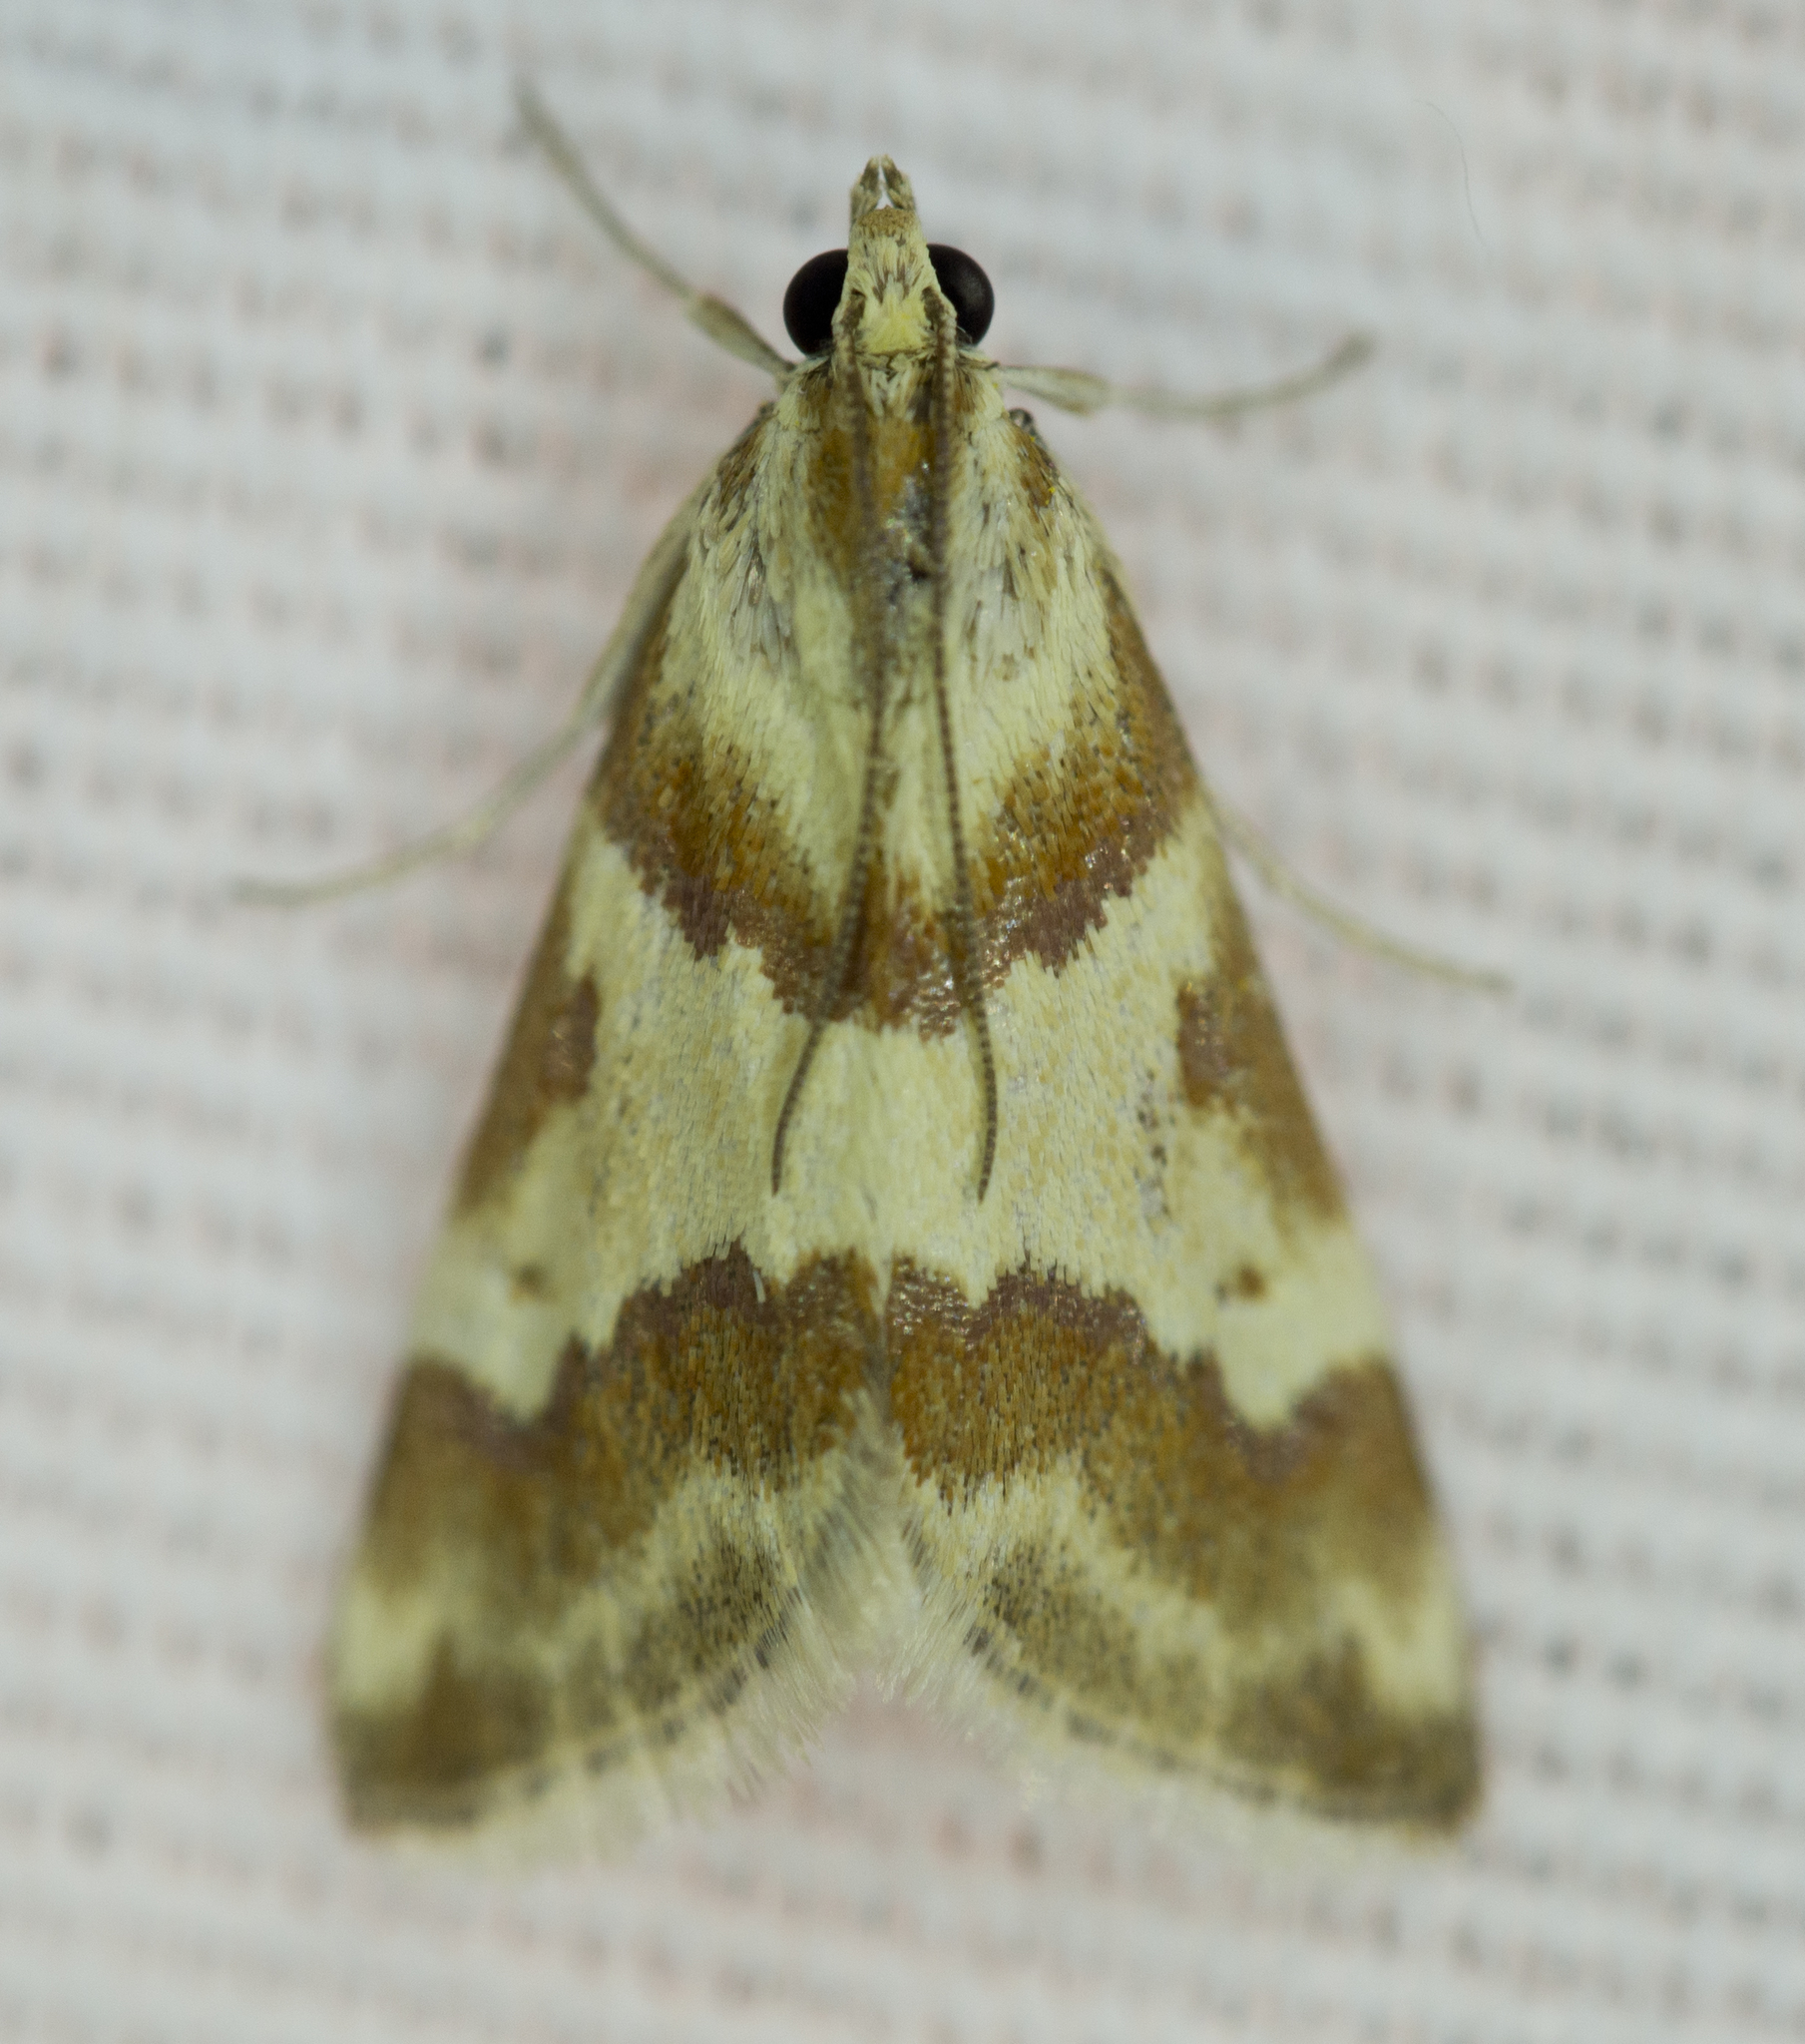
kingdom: Animalia
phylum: Arthropoda
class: Insecta
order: Lepidoptera
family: Crambidae
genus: Noctuelia
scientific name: Noctuelia Mimoschinia rufofascialis
